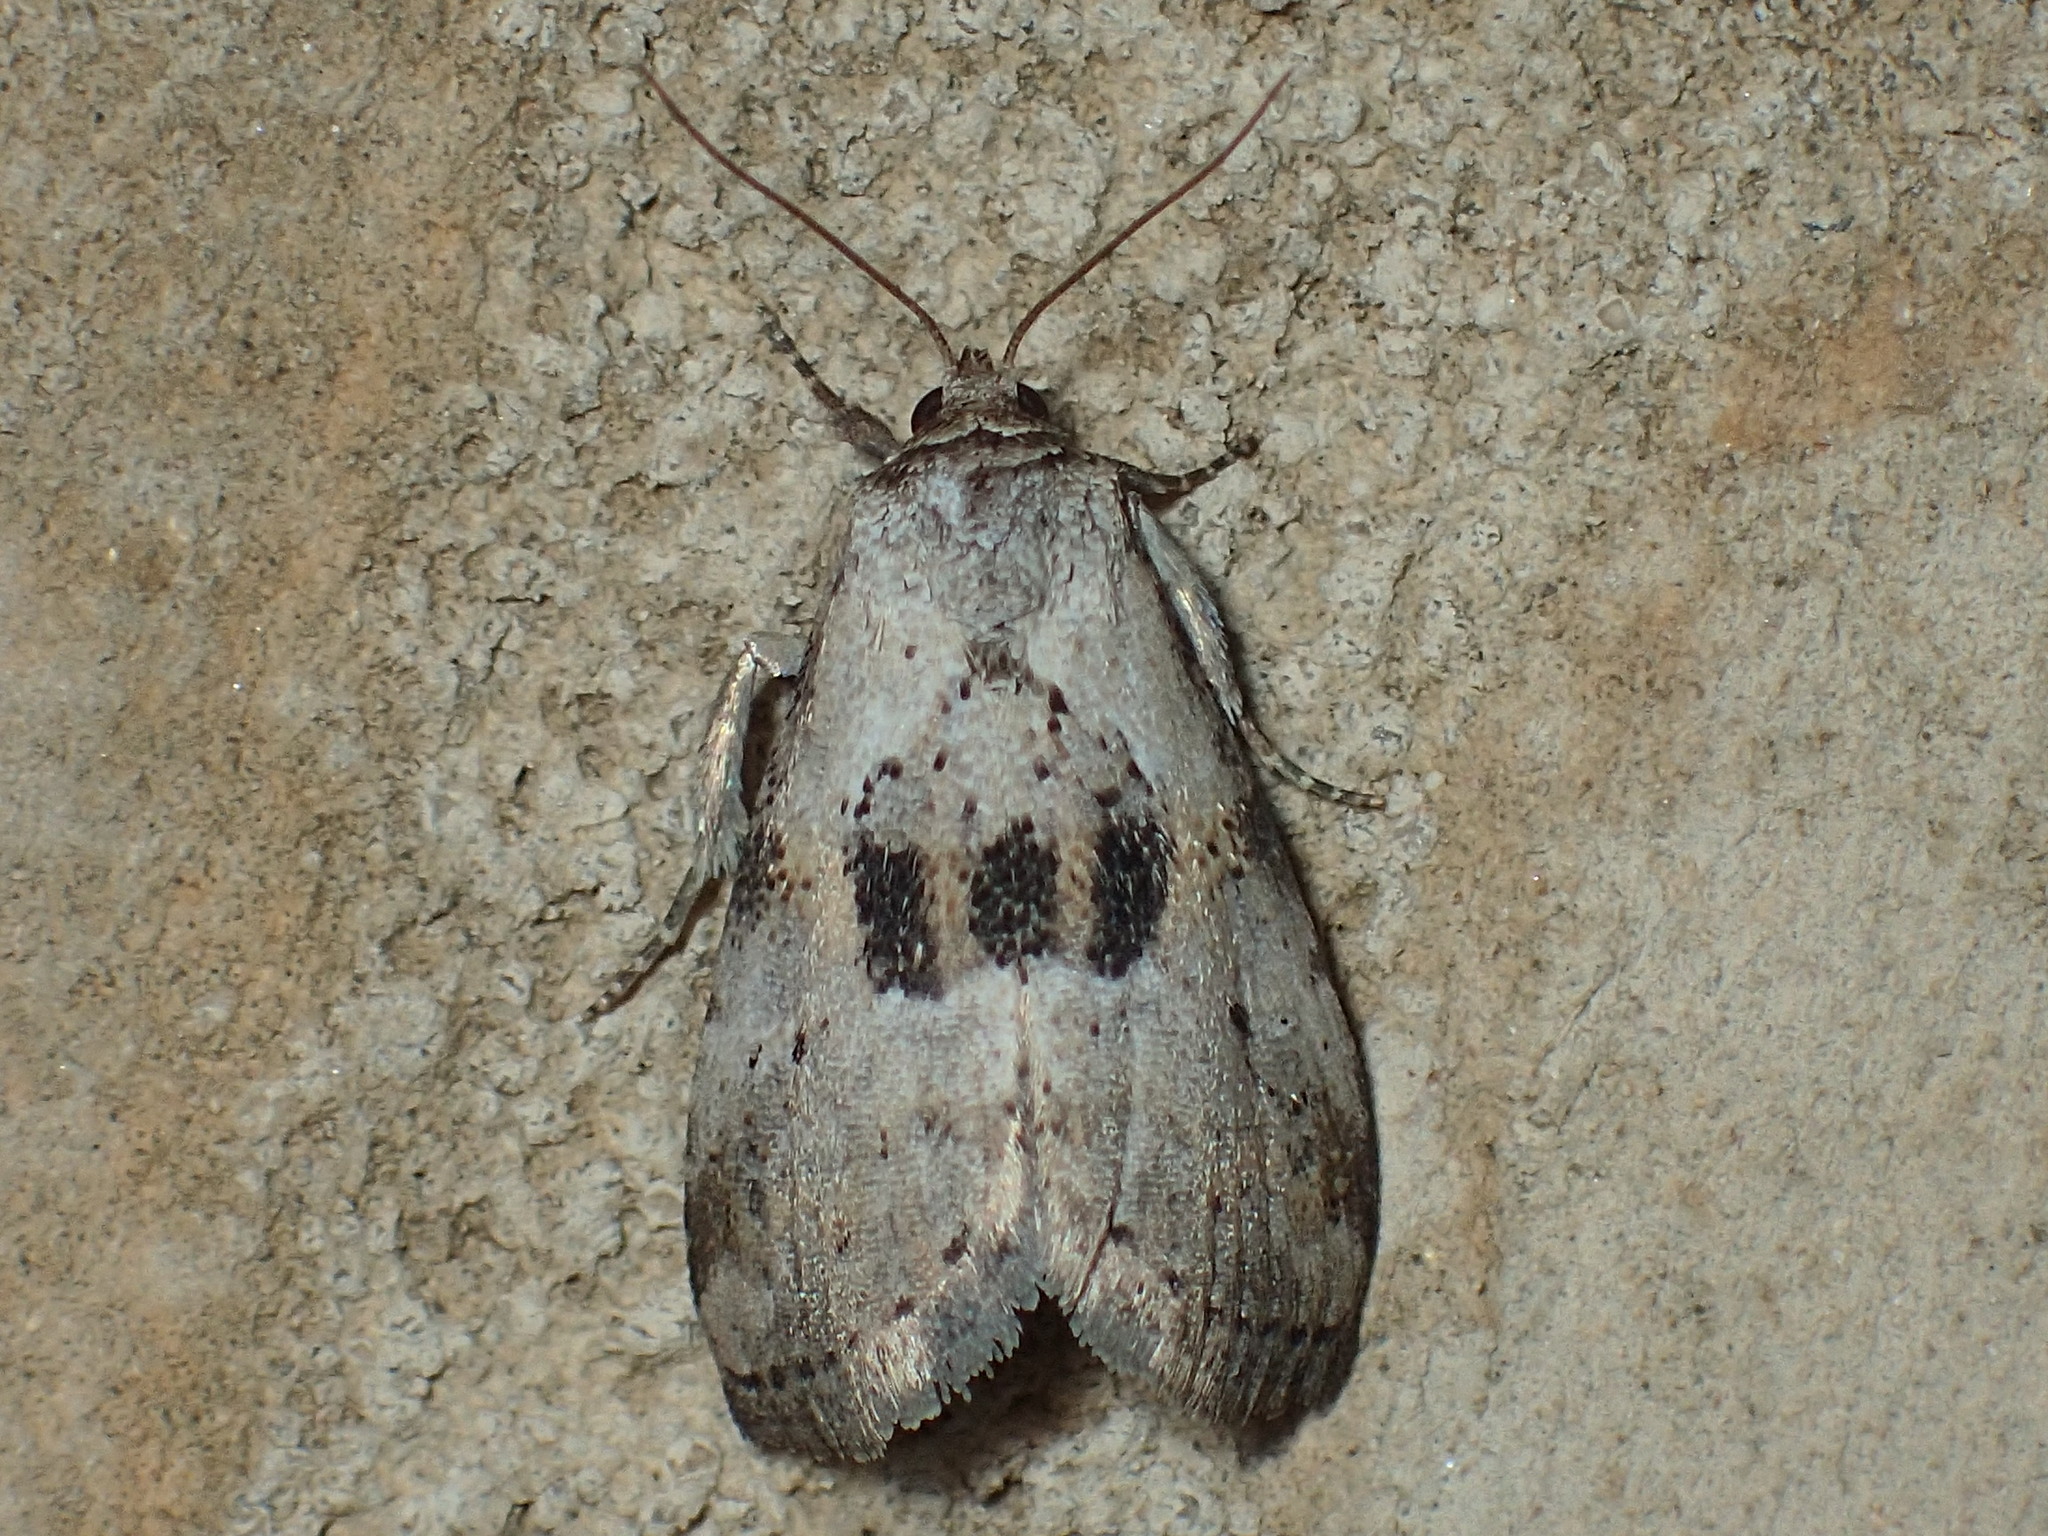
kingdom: Animalia
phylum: Arthropoda
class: Insecta
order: Lepidoptera
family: Erebidae
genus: Hyperstrotia
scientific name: Hyperstrotia secta
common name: Black-patched graylet
